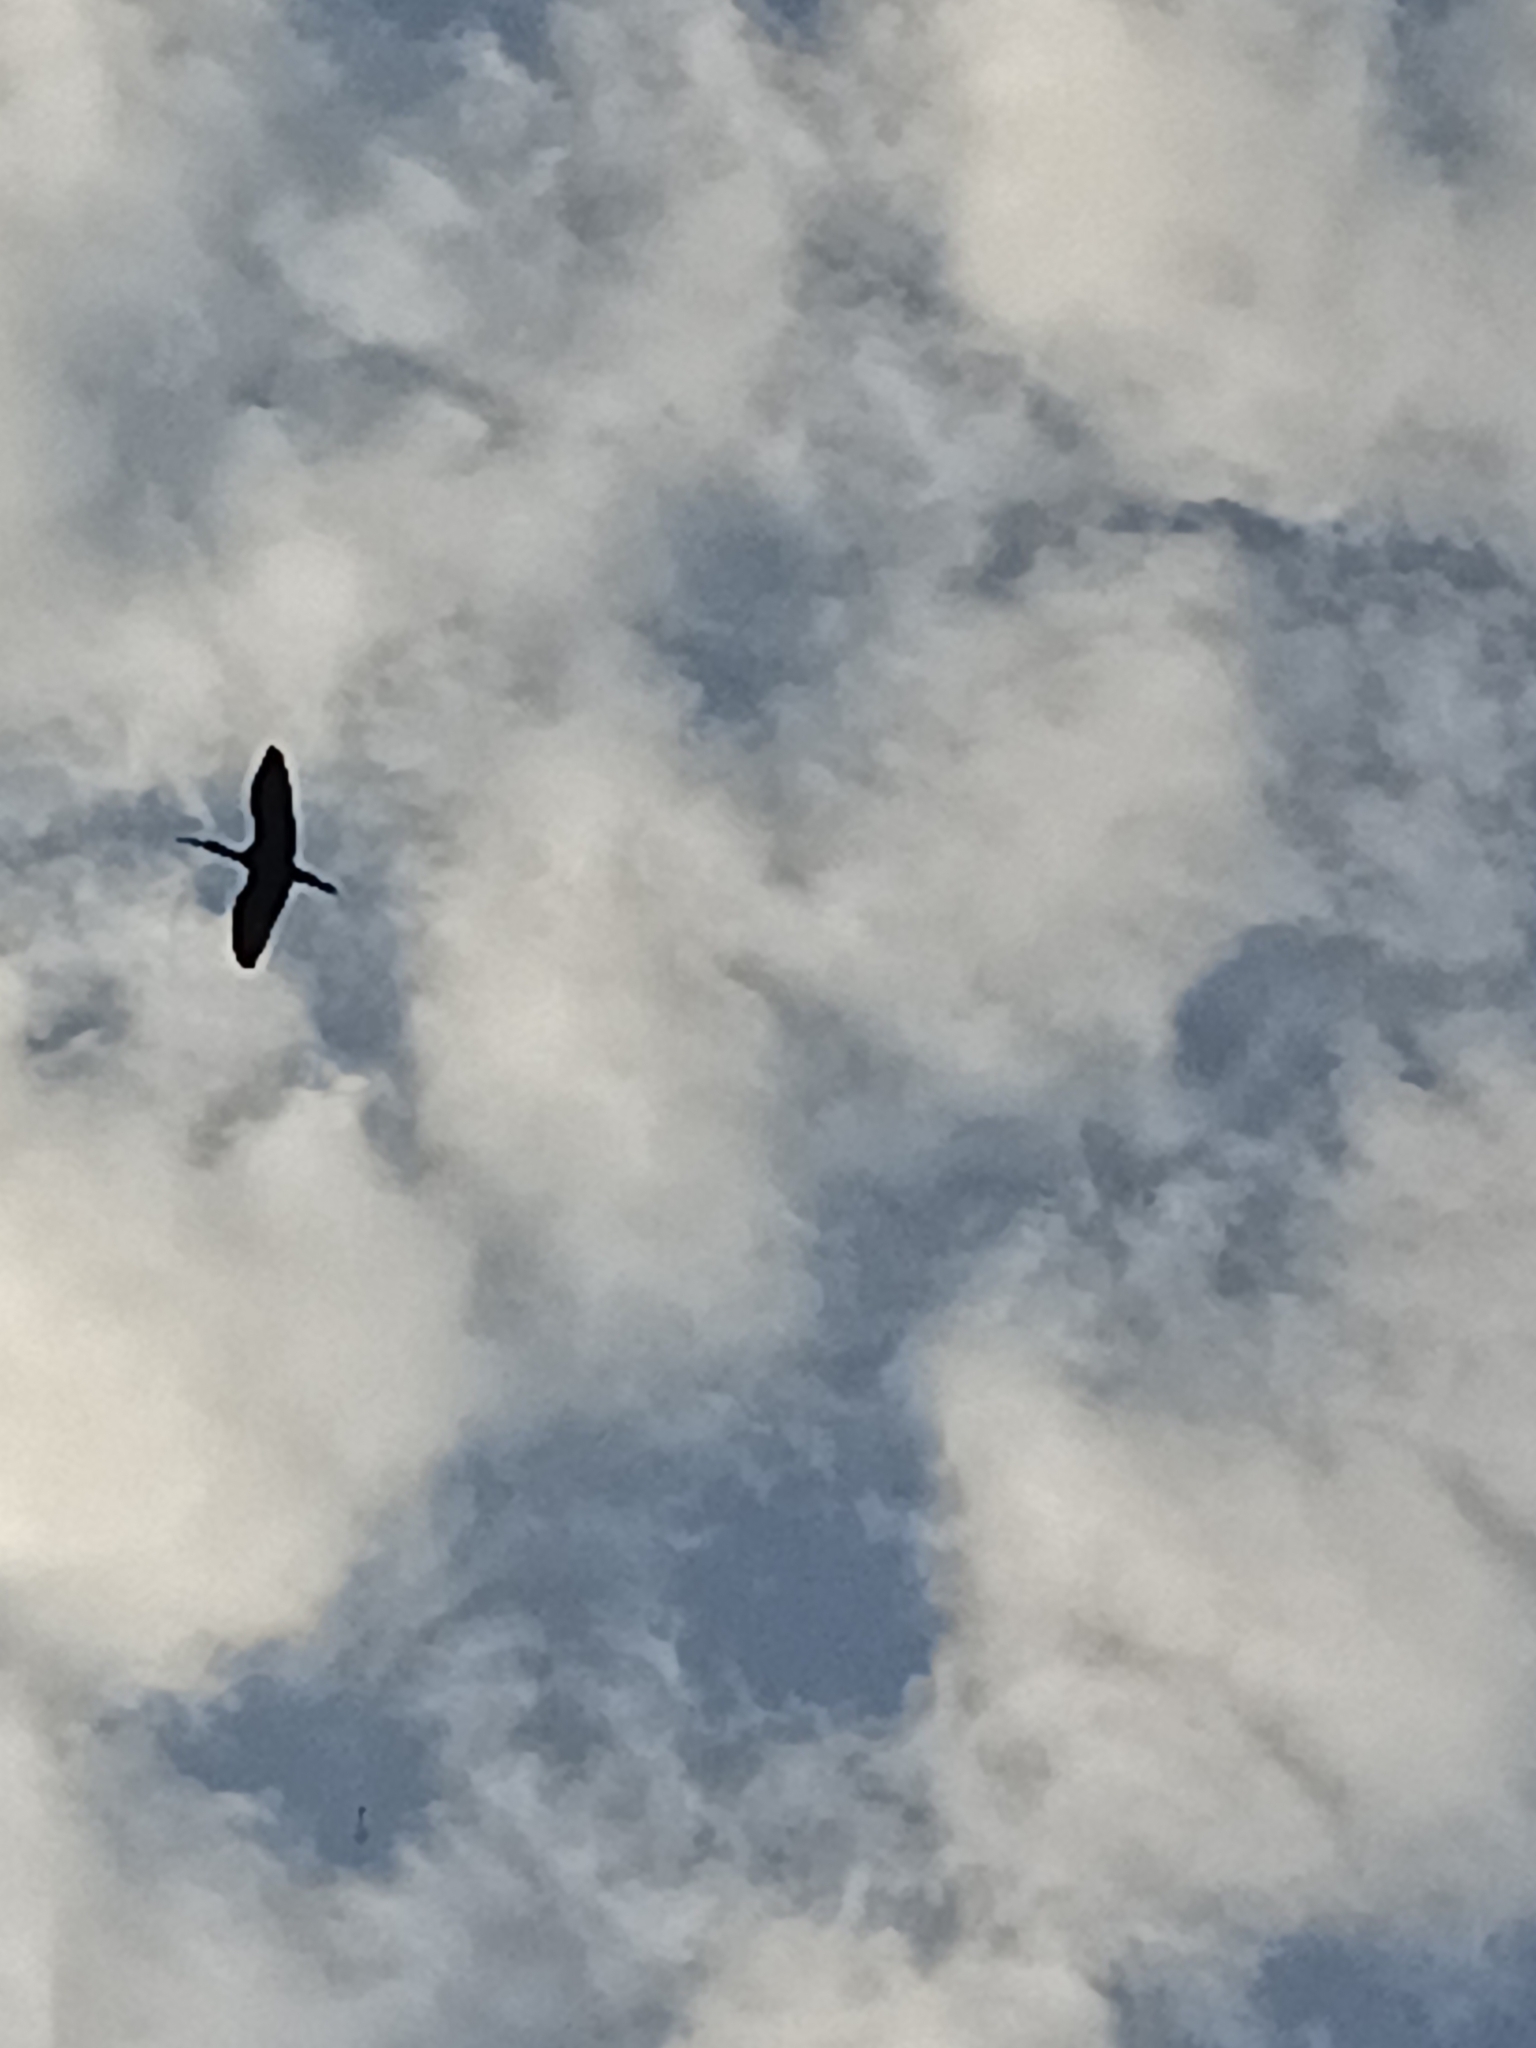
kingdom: Animalia
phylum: Chordata
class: Aves
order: Pelecaniformes
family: Threskiornithidae
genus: Plegadis
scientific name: Plegadis falcinellus
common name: Glossy ibis
